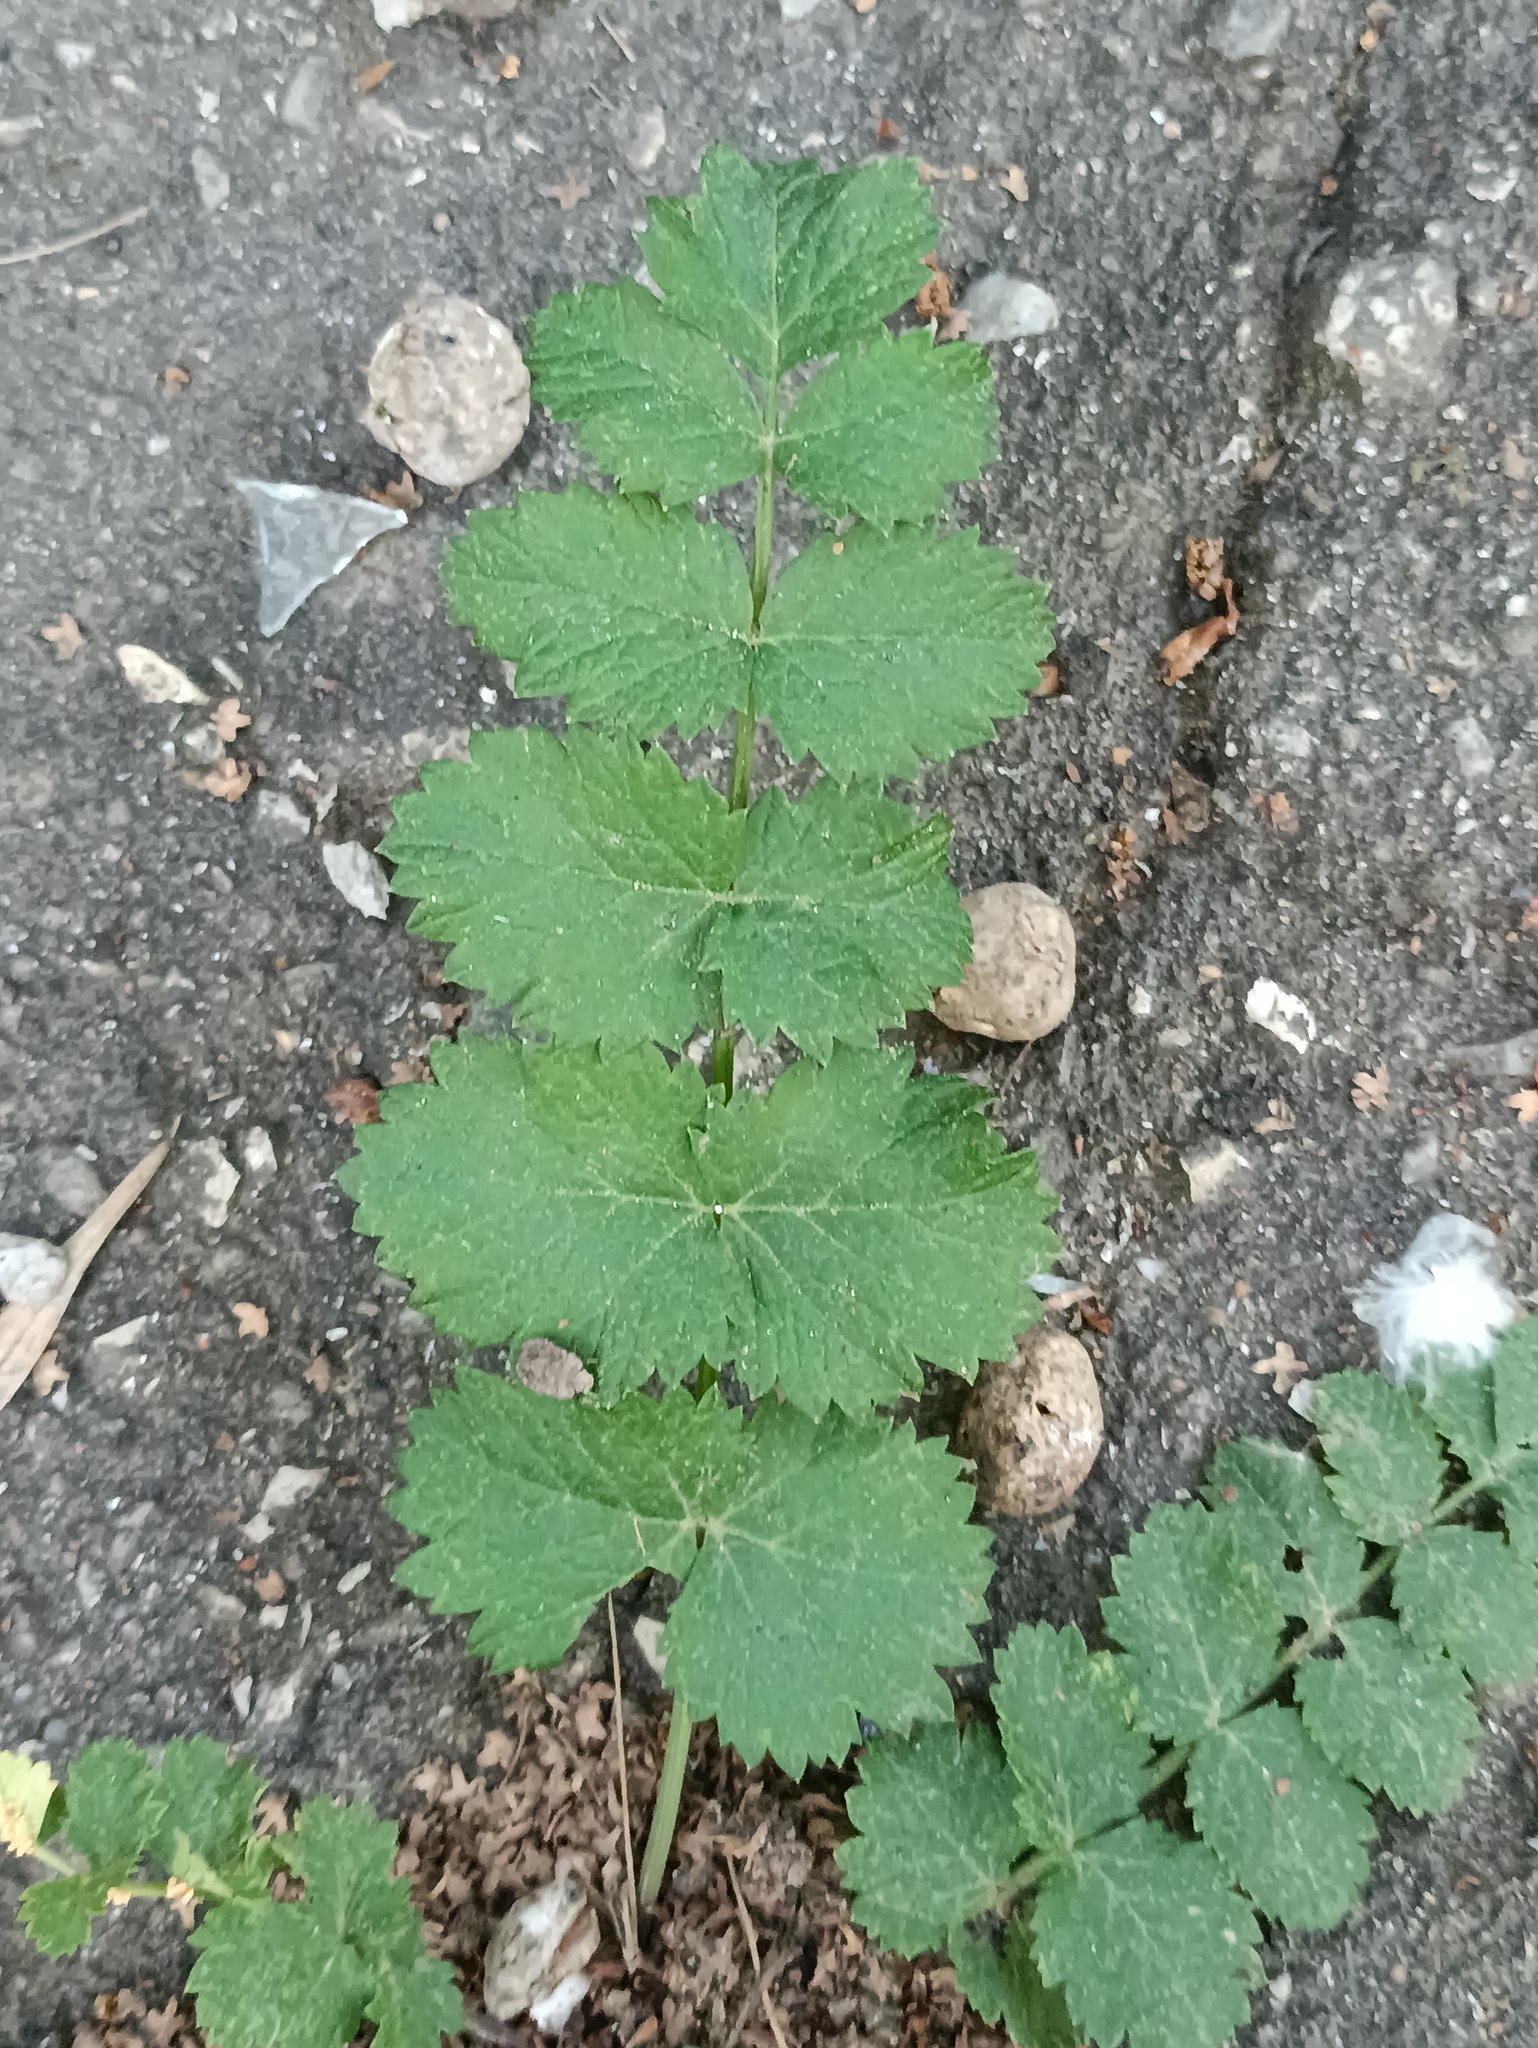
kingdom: Plantae
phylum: Tracheophyta
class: Magnoliopsida
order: Apiales
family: Apiaceae
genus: Pimpinella
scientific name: Pimpinella saxifraga
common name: Burnet-saxifrage
